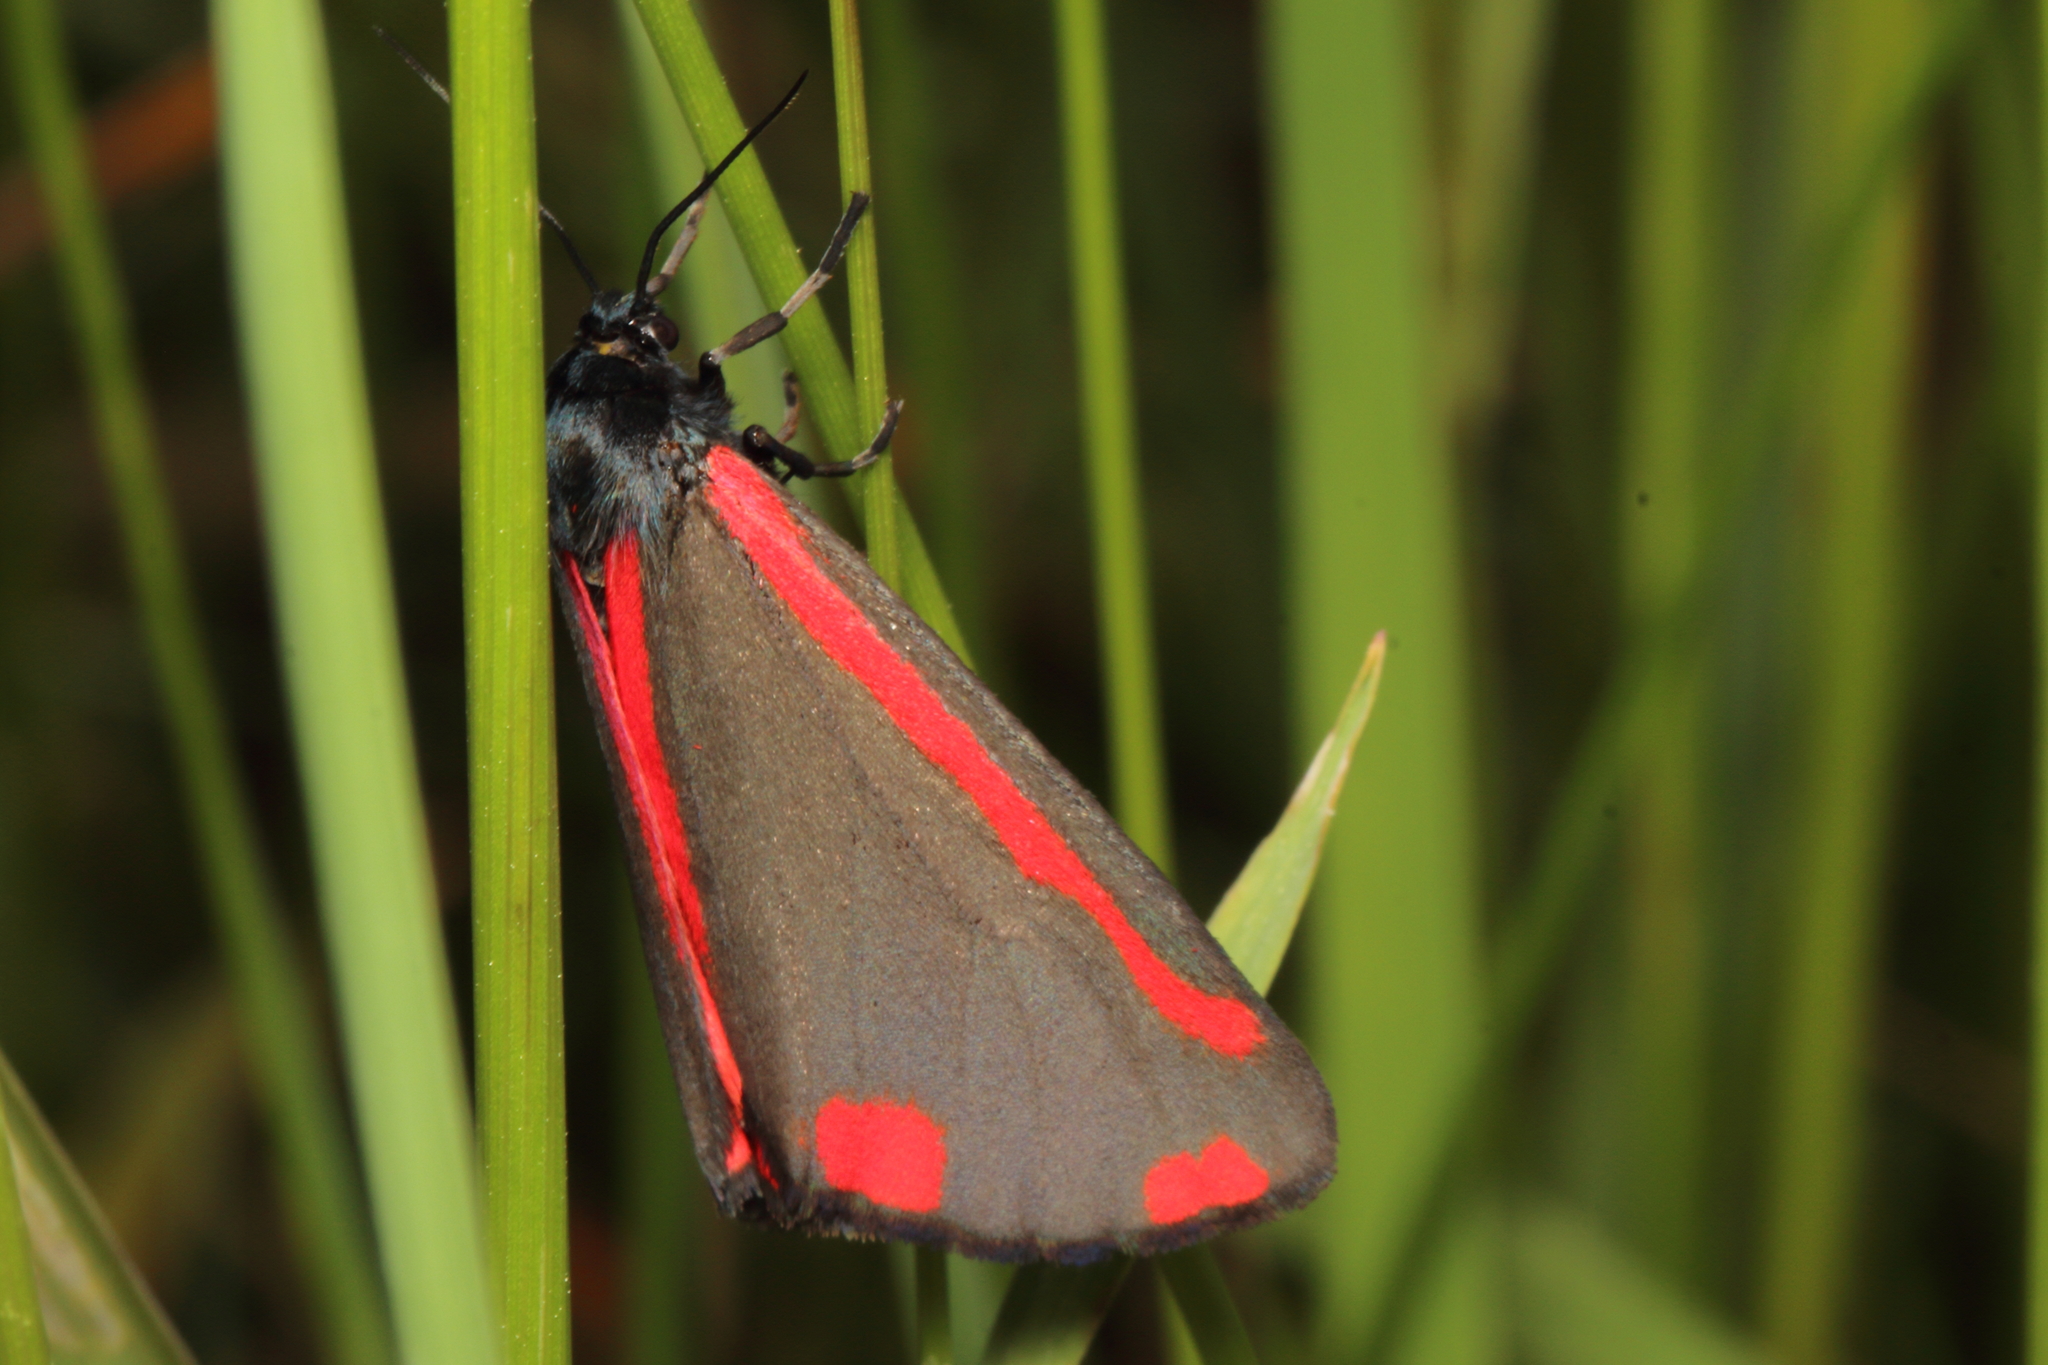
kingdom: Animalia
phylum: Arthropoda
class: Insecta
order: Lepidoptera
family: Erebidae
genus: Tyria
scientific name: Tyria jacobaeae
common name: Cinnabar
